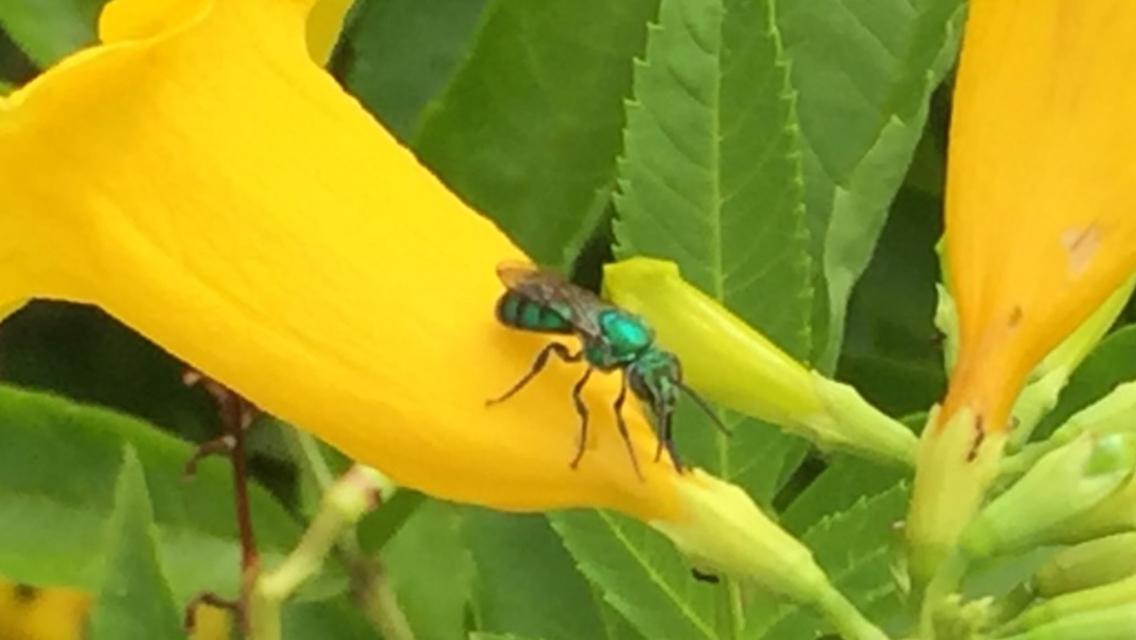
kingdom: Animalia
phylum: Arthropoda
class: Insecta
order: Hymenoptera
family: Halictidae
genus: Pseudaugochlora
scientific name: Pseudaugochlora graminea
